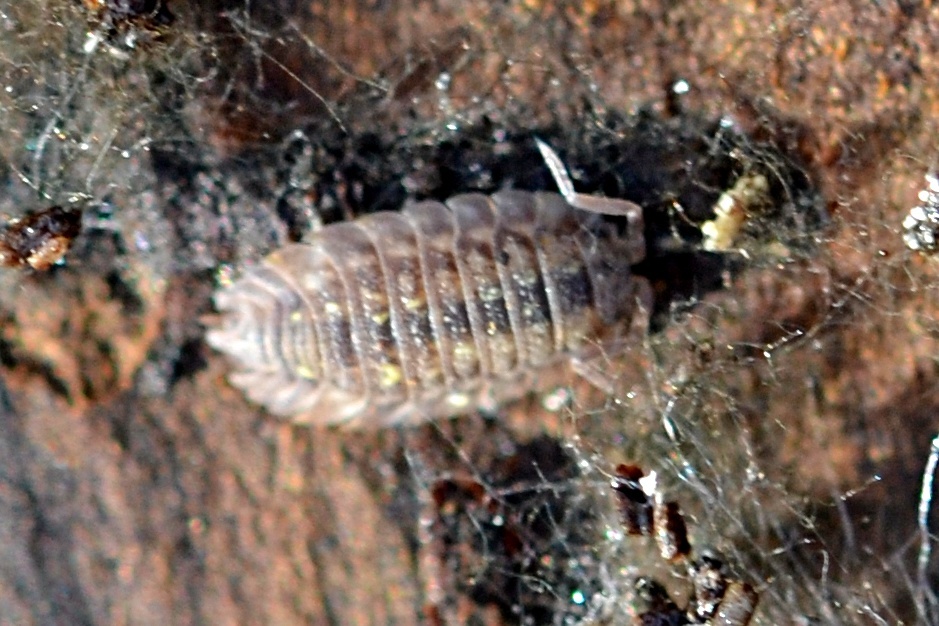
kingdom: Animalia
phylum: Arthropoda
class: Malacostraca
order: Isopoda
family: Oniscidae
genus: Oniscus
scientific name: Oniscus asellus
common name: Common shiny woodlouse
